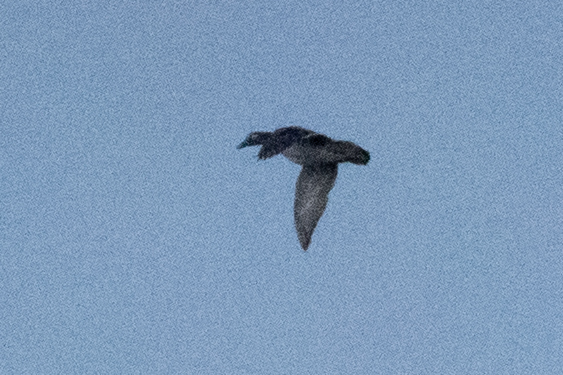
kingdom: Animalia
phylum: Chordata
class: Aves
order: Anseriformes
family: Anatidae
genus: Aix
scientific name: Aix sponsa
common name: Wood duck
